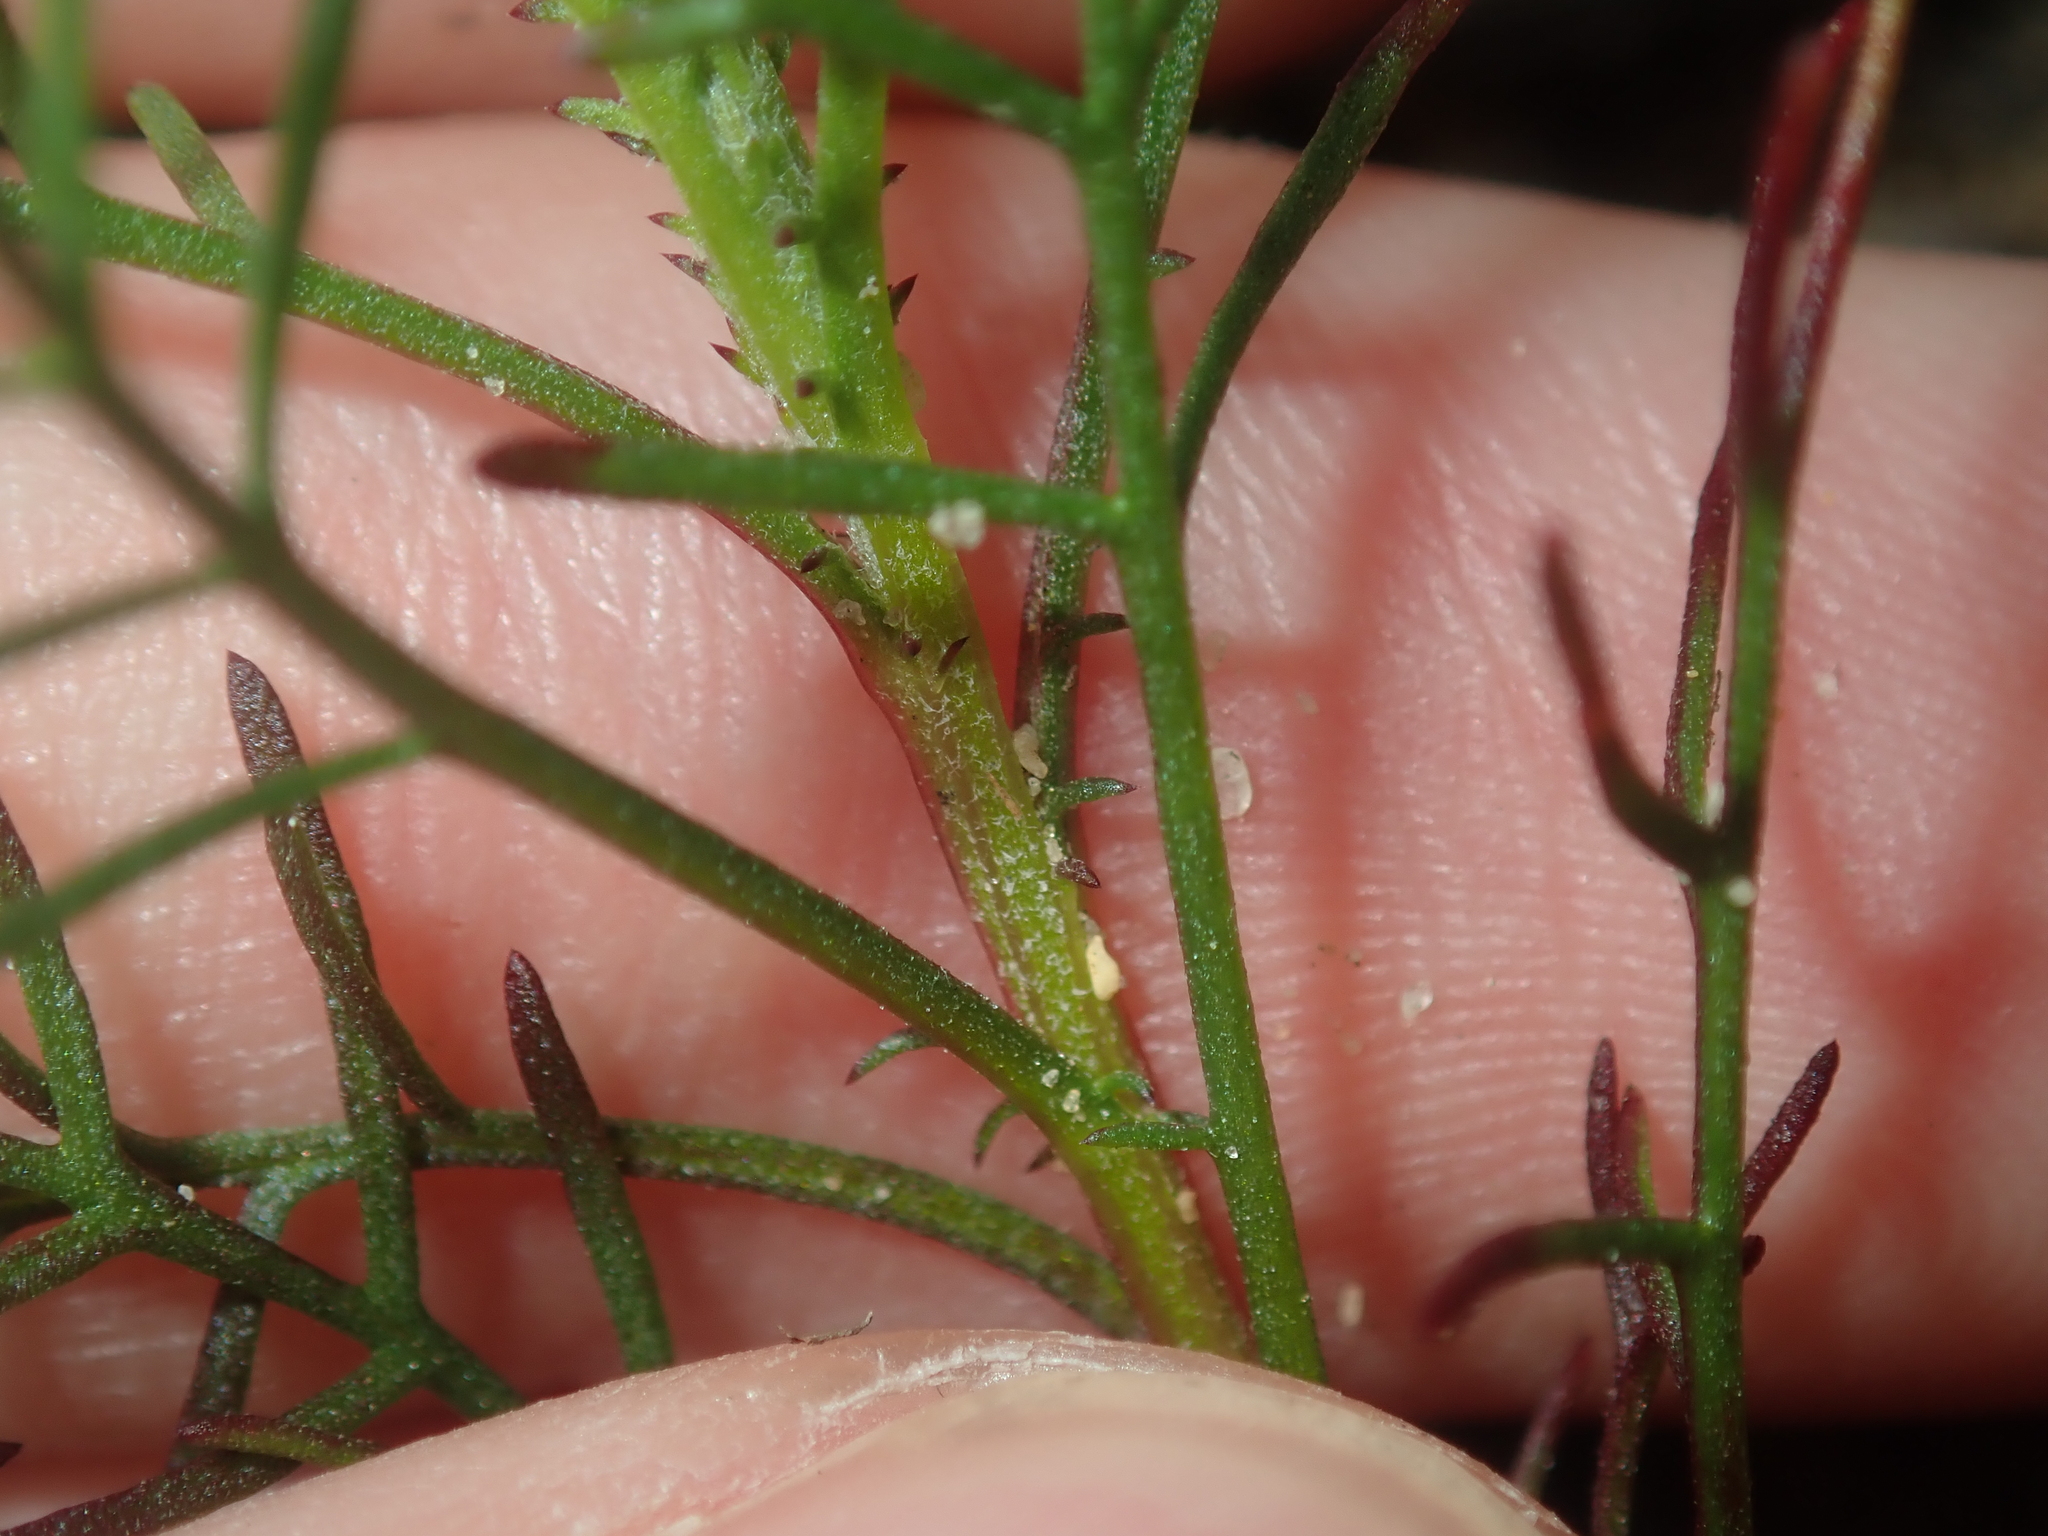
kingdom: Plantae
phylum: Tracheophyta
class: Magnoliopsida
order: Asterales
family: Asteraceae
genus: Ursinia
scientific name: Ursinia anthemoides
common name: Ursinia
